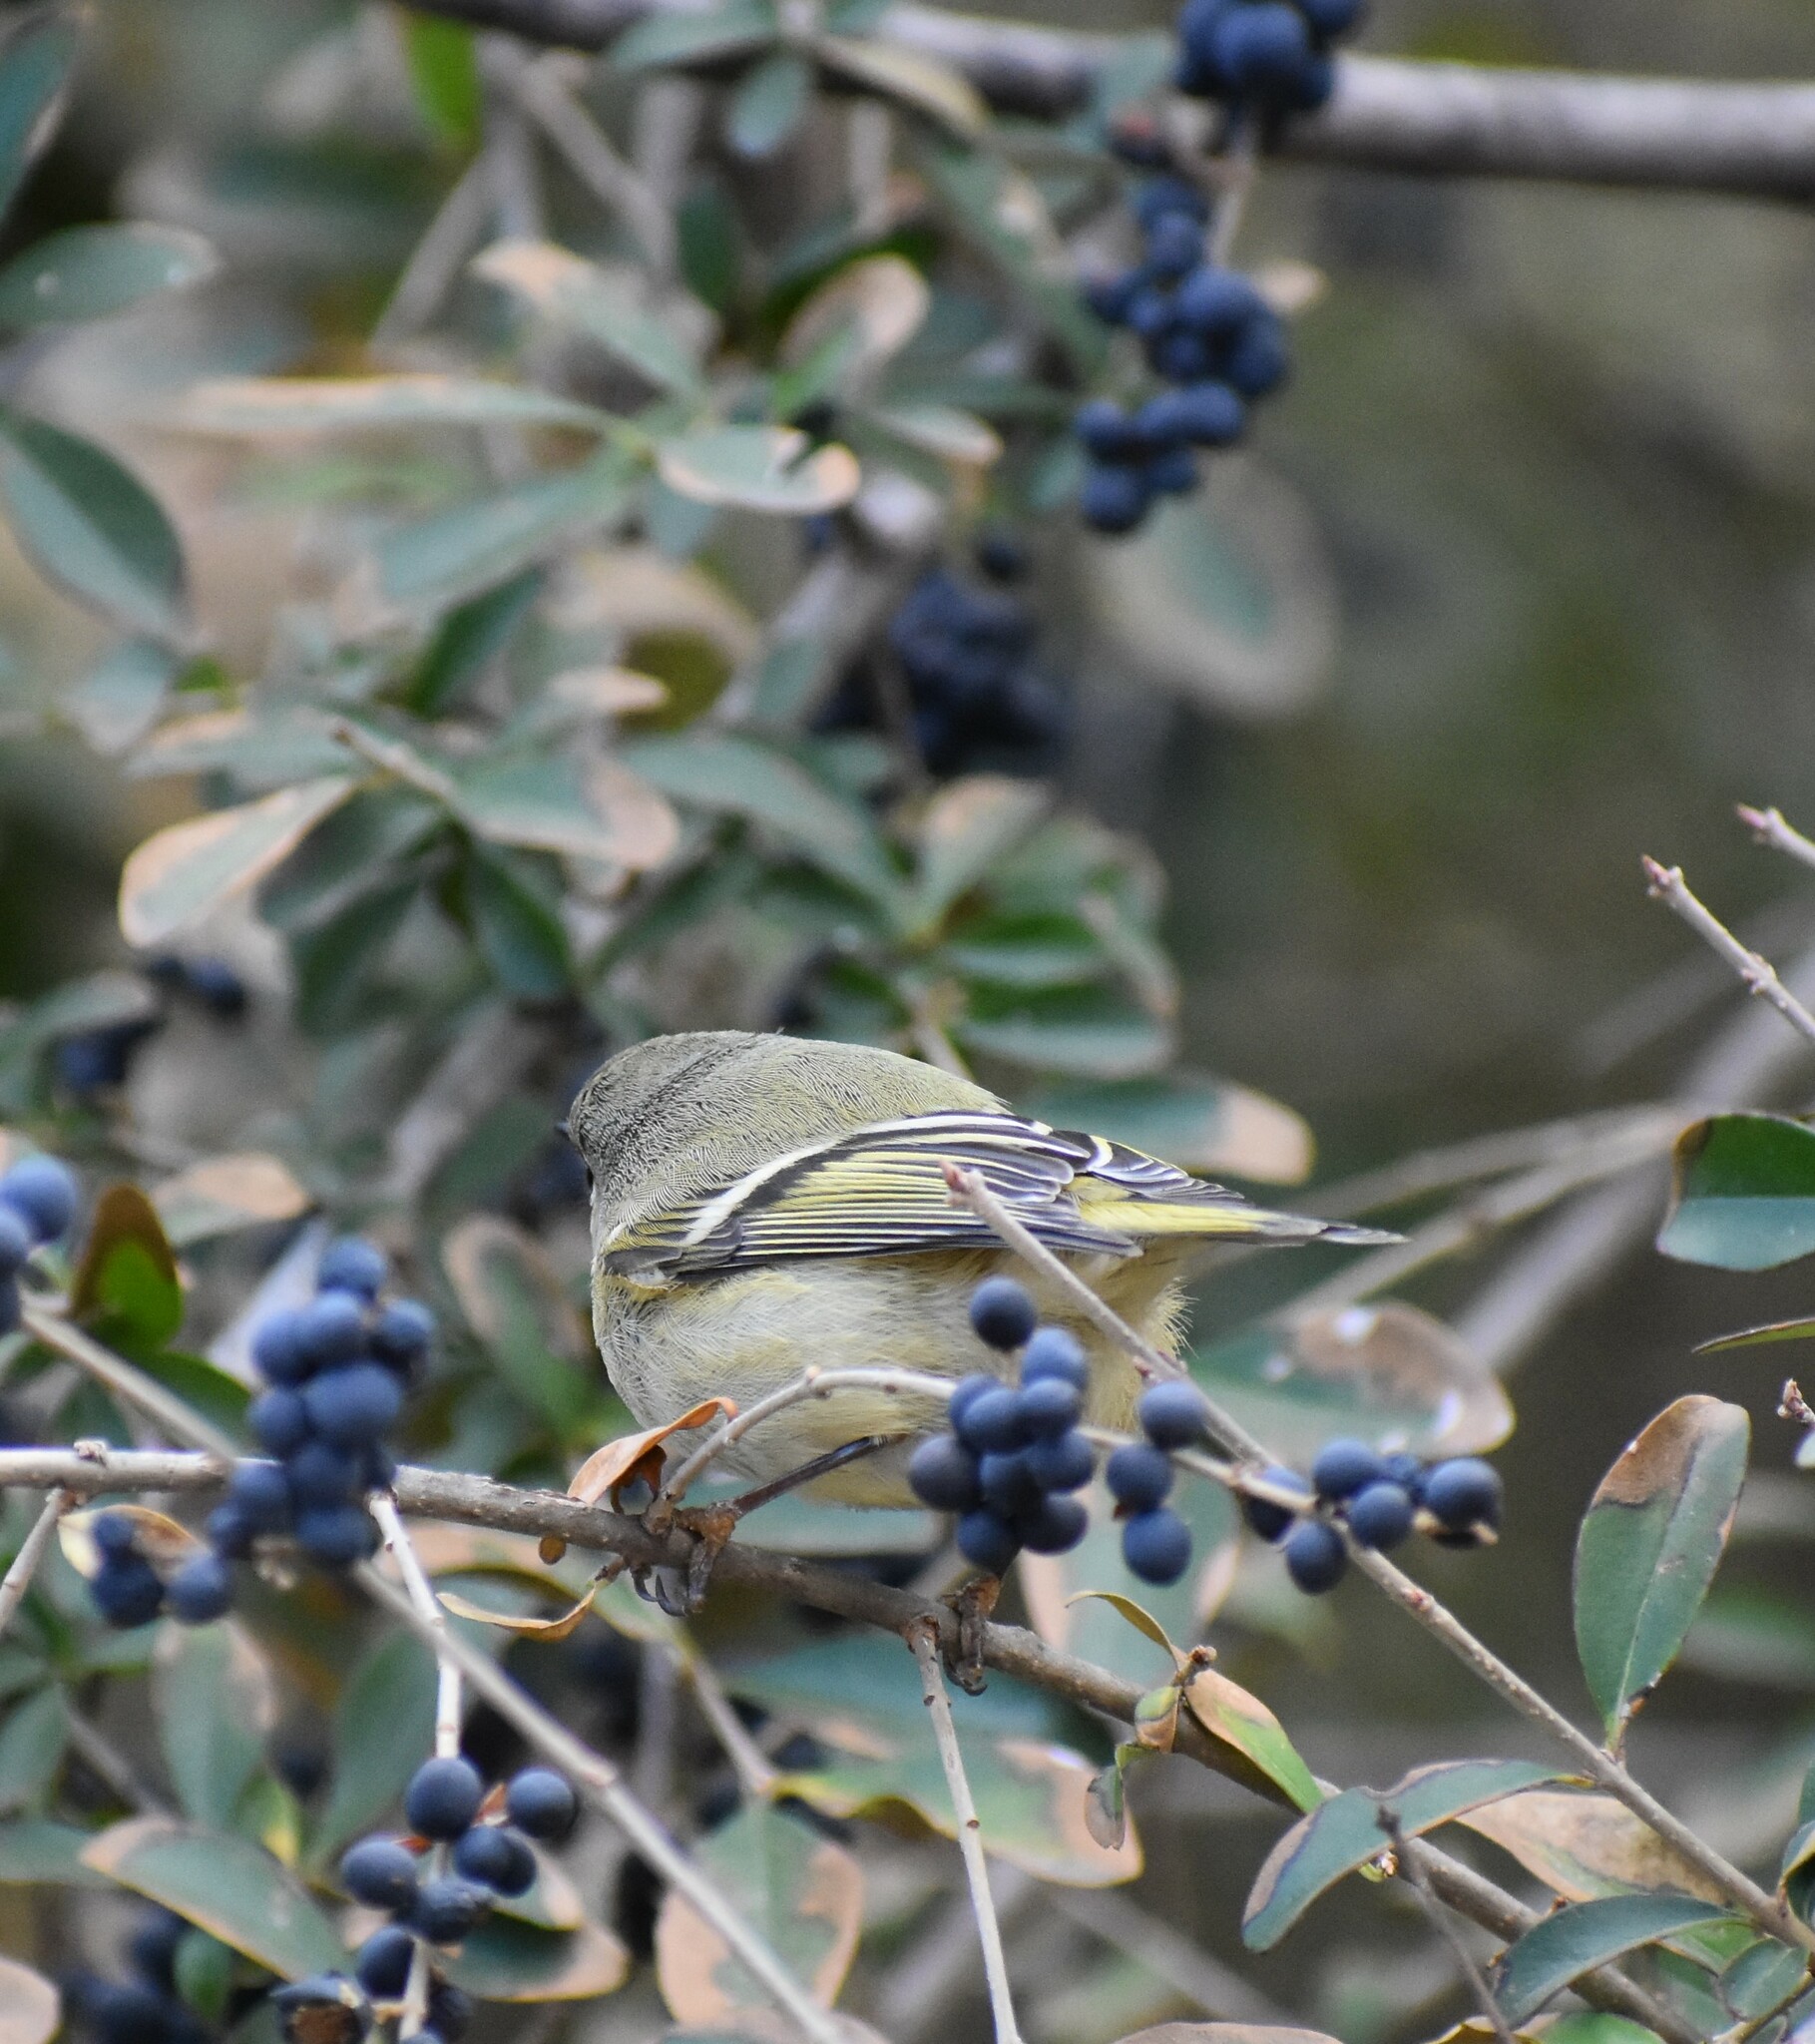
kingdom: Animalia
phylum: Chordata
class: Aves
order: Passeriformes
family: Regulidae
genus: Regulus
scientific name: Regulus calendula
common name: Ruby-crowned kinglet
